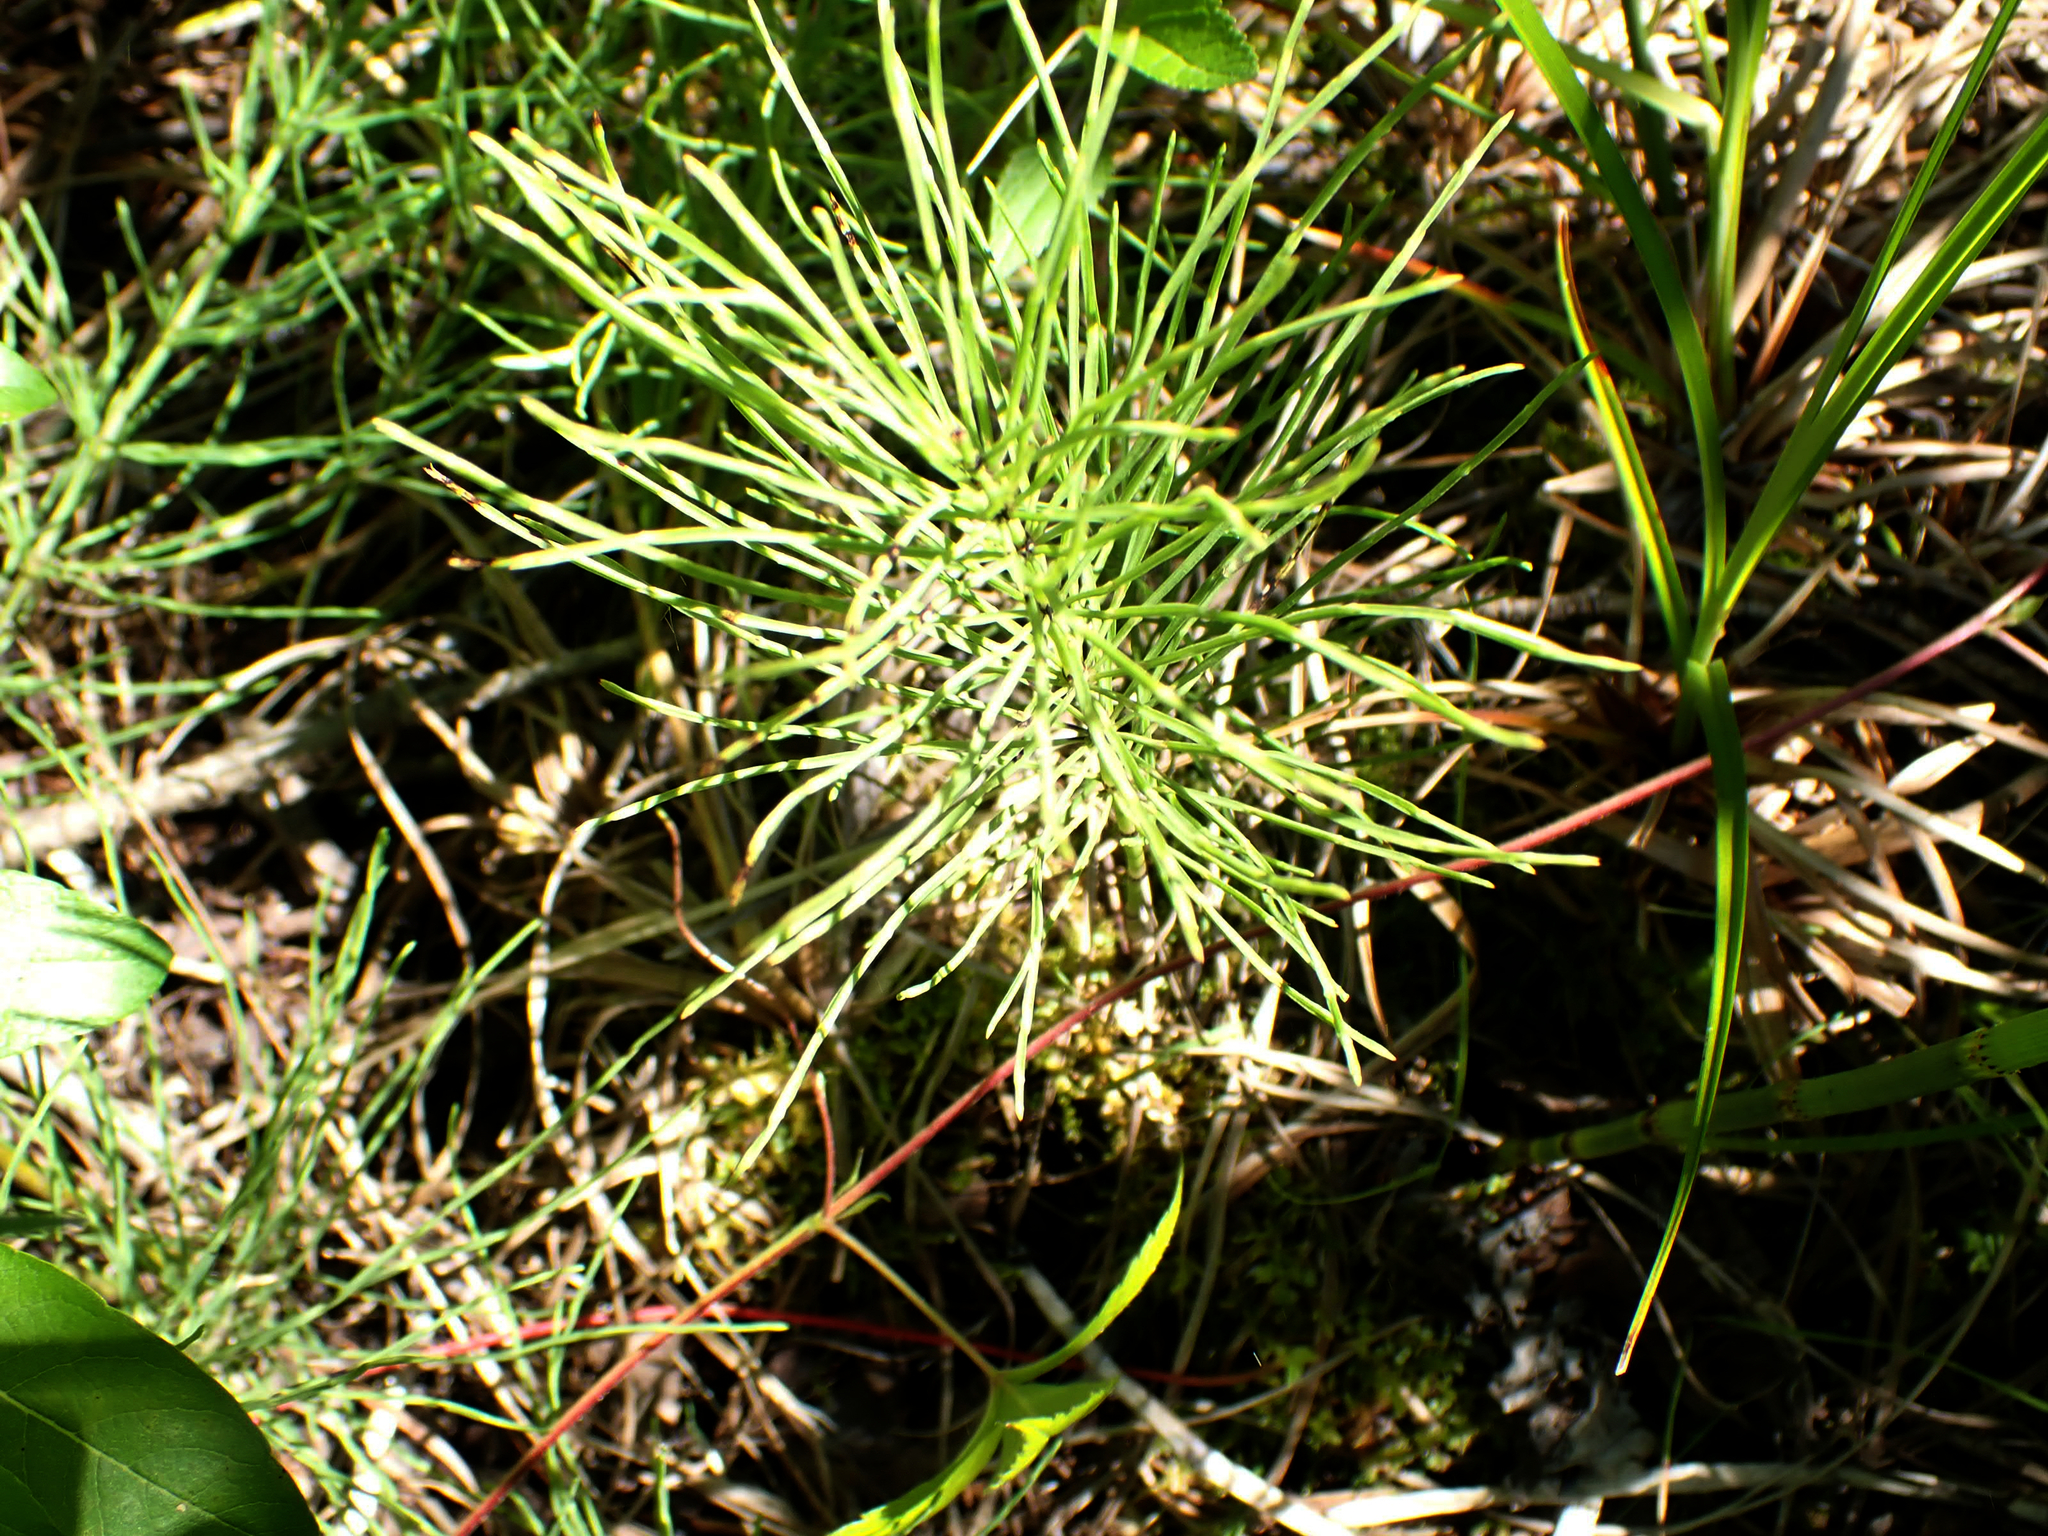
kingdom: Plantae
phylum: Tracheophyta
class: Polypodiopsida
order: Equisetales
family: Equisetaceae
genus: Equisetum
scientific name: Equisetum arvense
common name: Field horsetail
